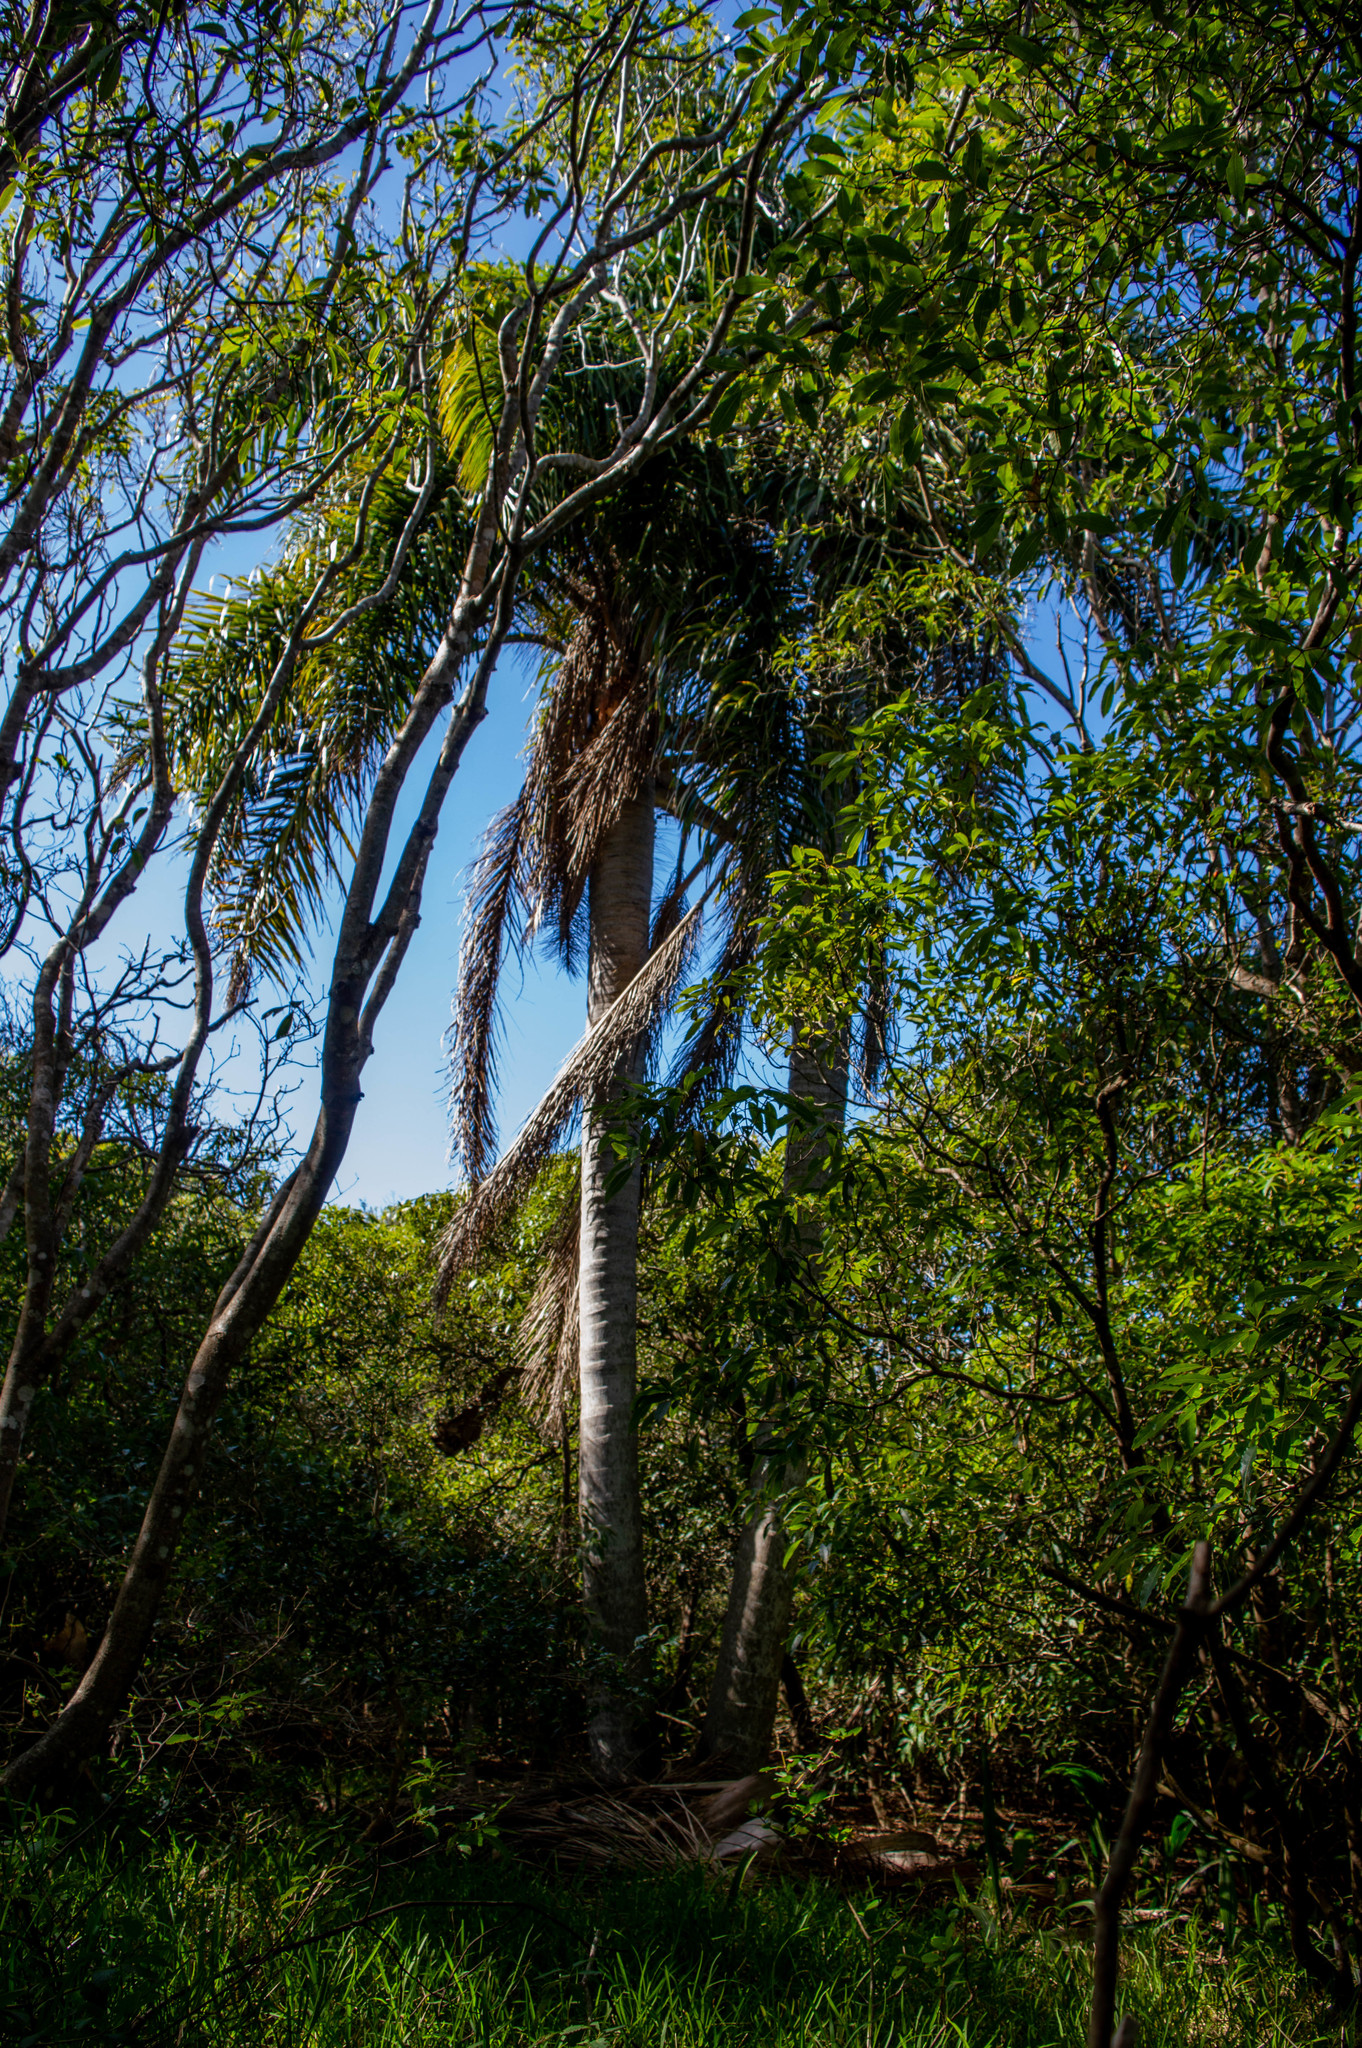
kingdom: Plantae
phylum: Tracheophyta
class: Liliopsida
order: Arecales
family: Arecaceae
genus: Syagrus
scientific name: Syagrus romanzoffiana
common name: Queen palm
